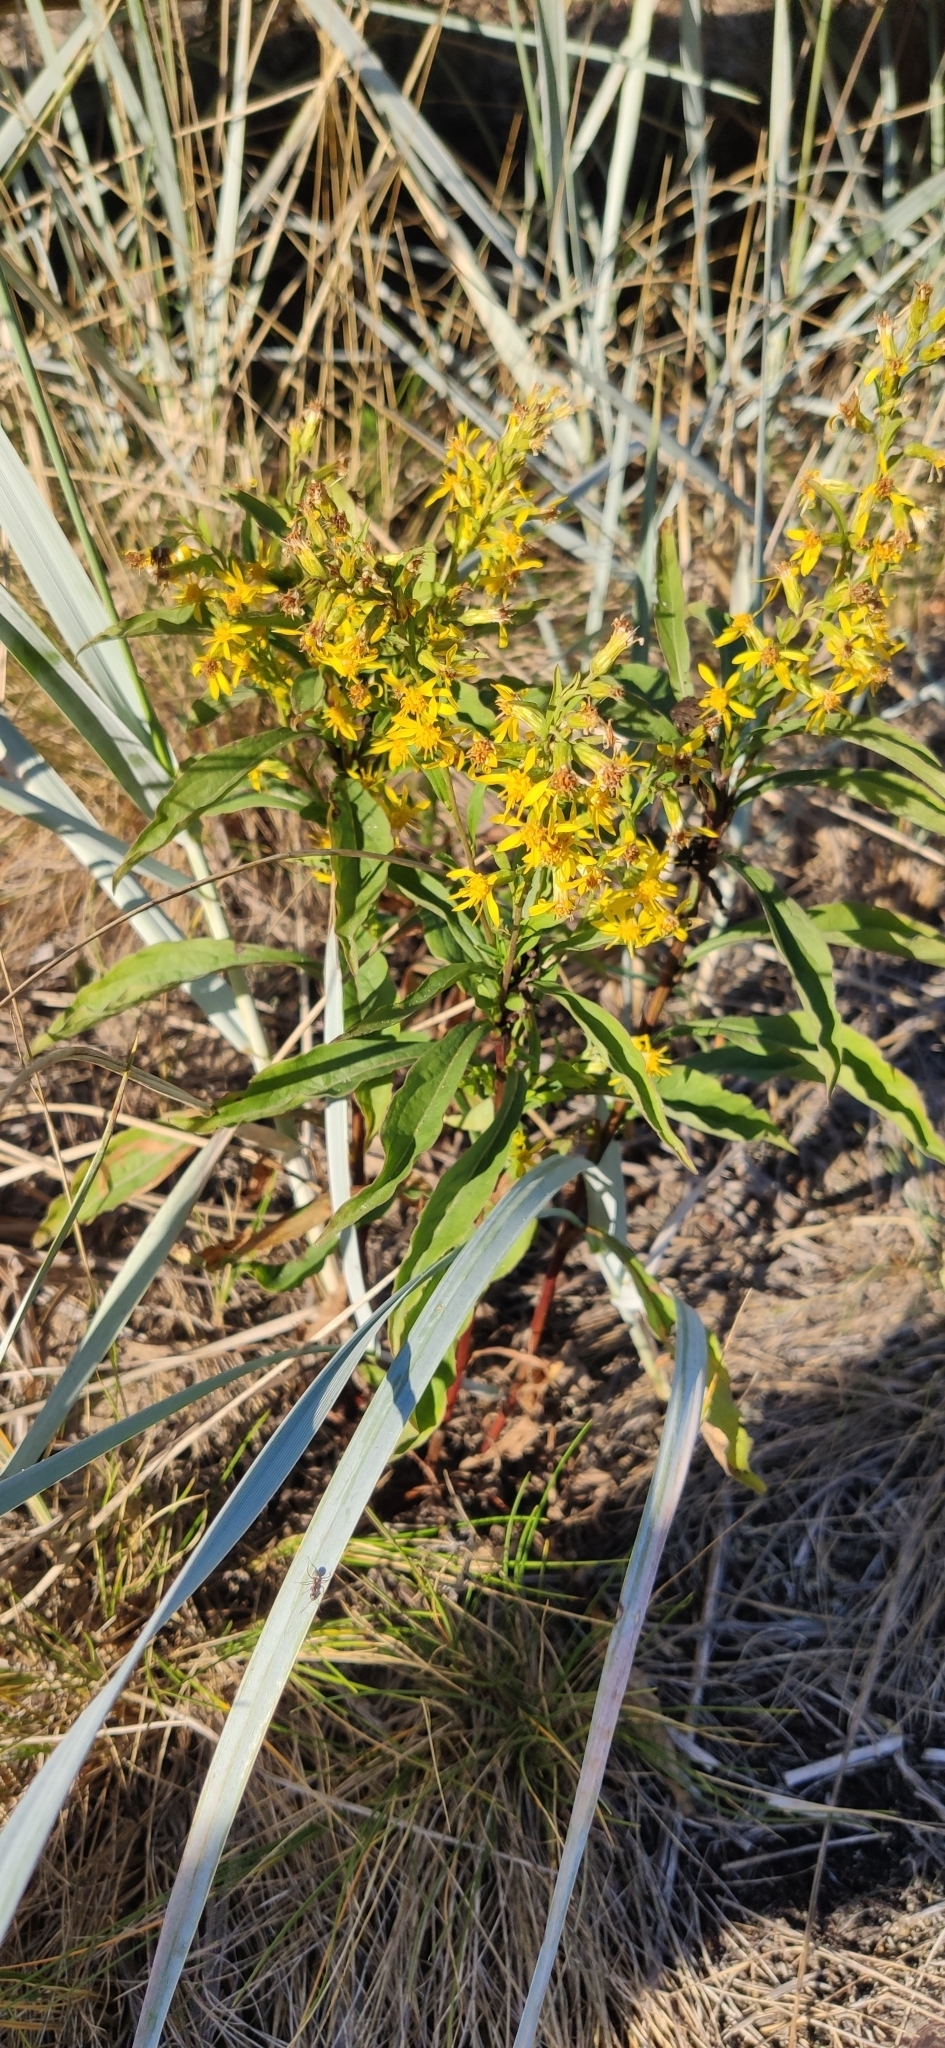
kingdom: Plantae
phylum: Tracheophyta
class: Magnoliopsida
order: Asterales
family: Asteraceae
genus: Solidago
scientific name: Solidago virgaurea
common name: Goldenrod
